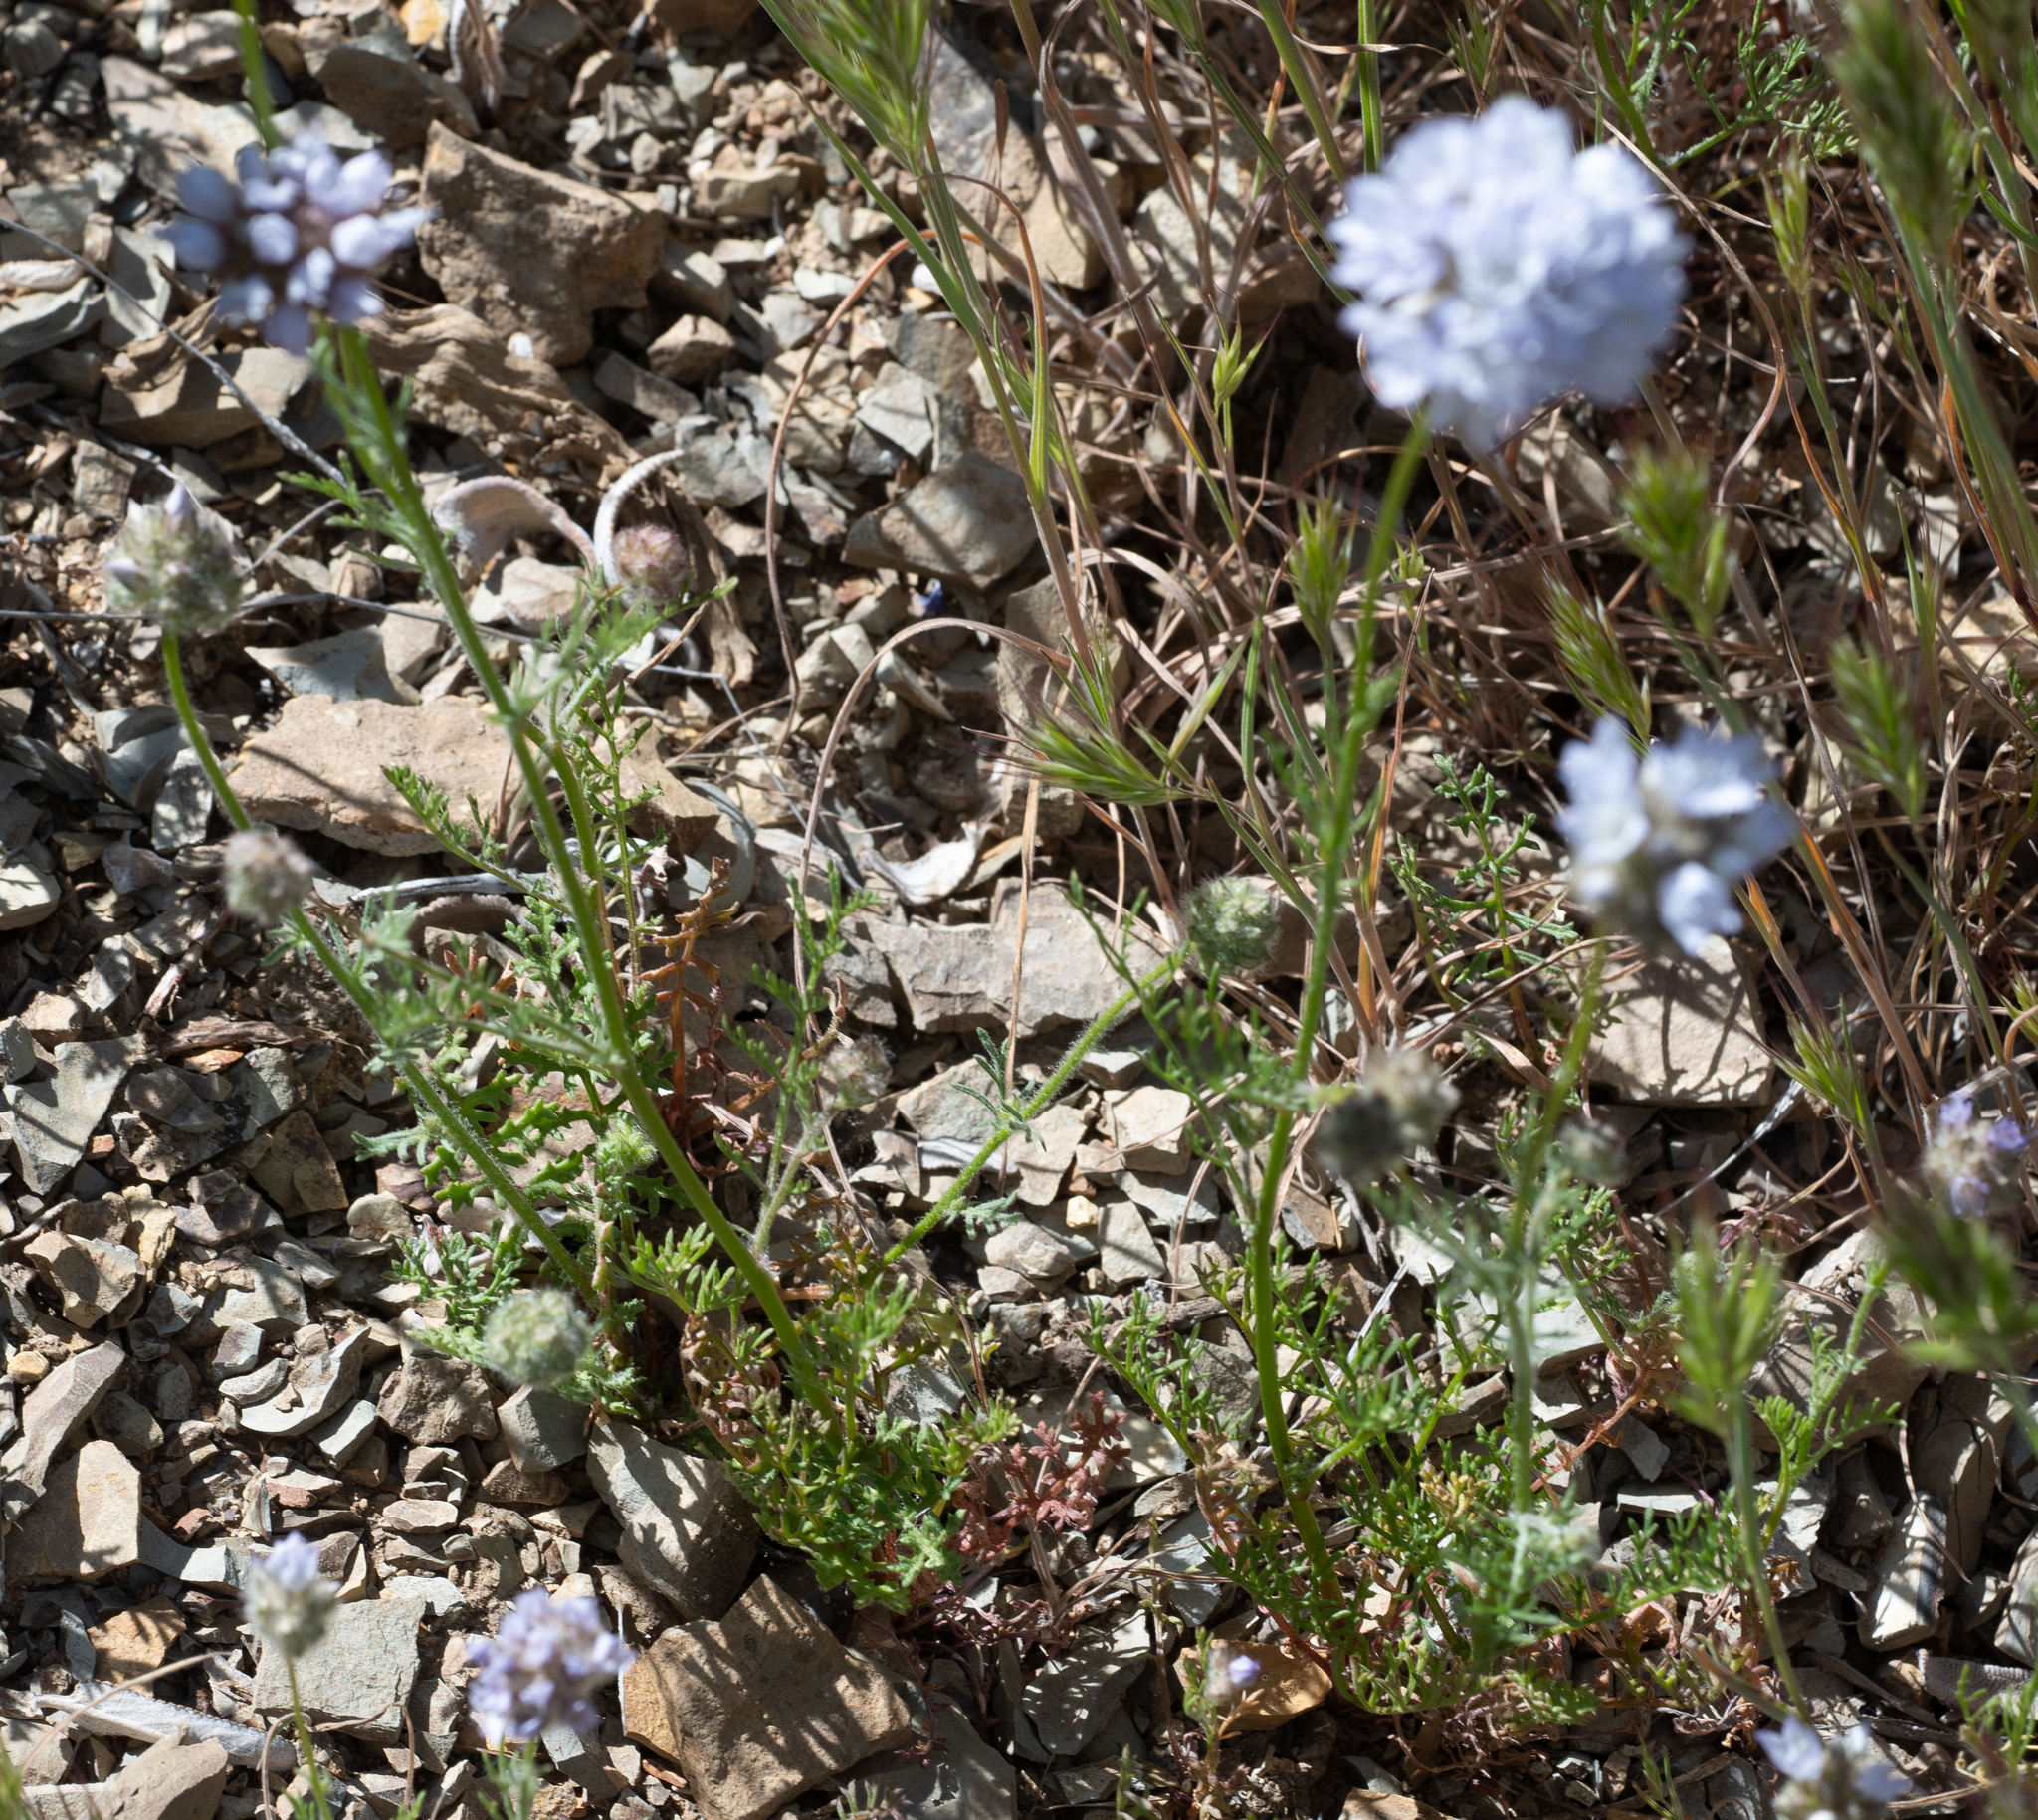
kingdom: Plantae
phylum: Tracheophyta
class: Magnoliopsida
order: Ericales
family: Polemoniaceae
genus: Gilia
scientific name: Gilia capitata
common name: Bluehead gilia
